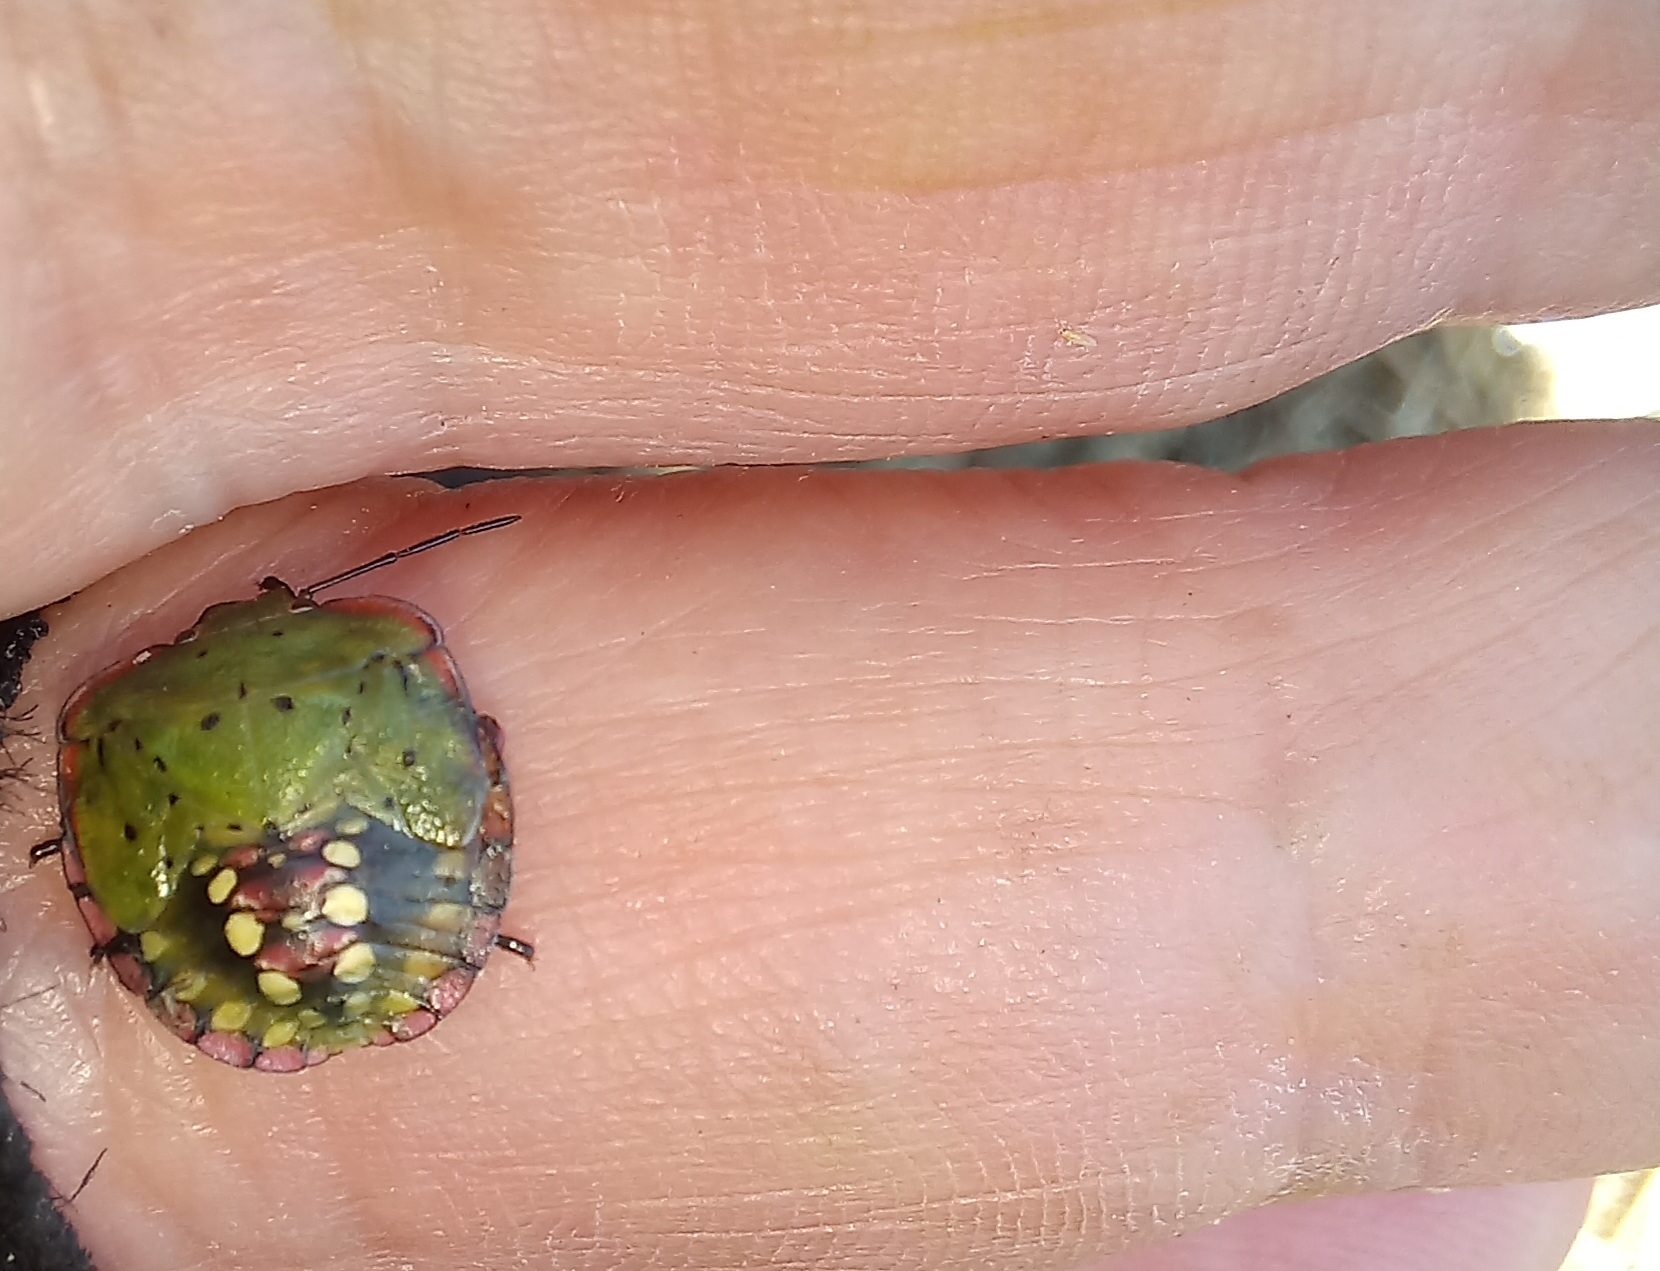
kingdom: Animalia
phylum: Arthropoda
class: Insecta
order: Hemiptera
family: Pentatomidae
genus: Nezara
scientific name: Nezara viridula
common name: Southern green stink bug
